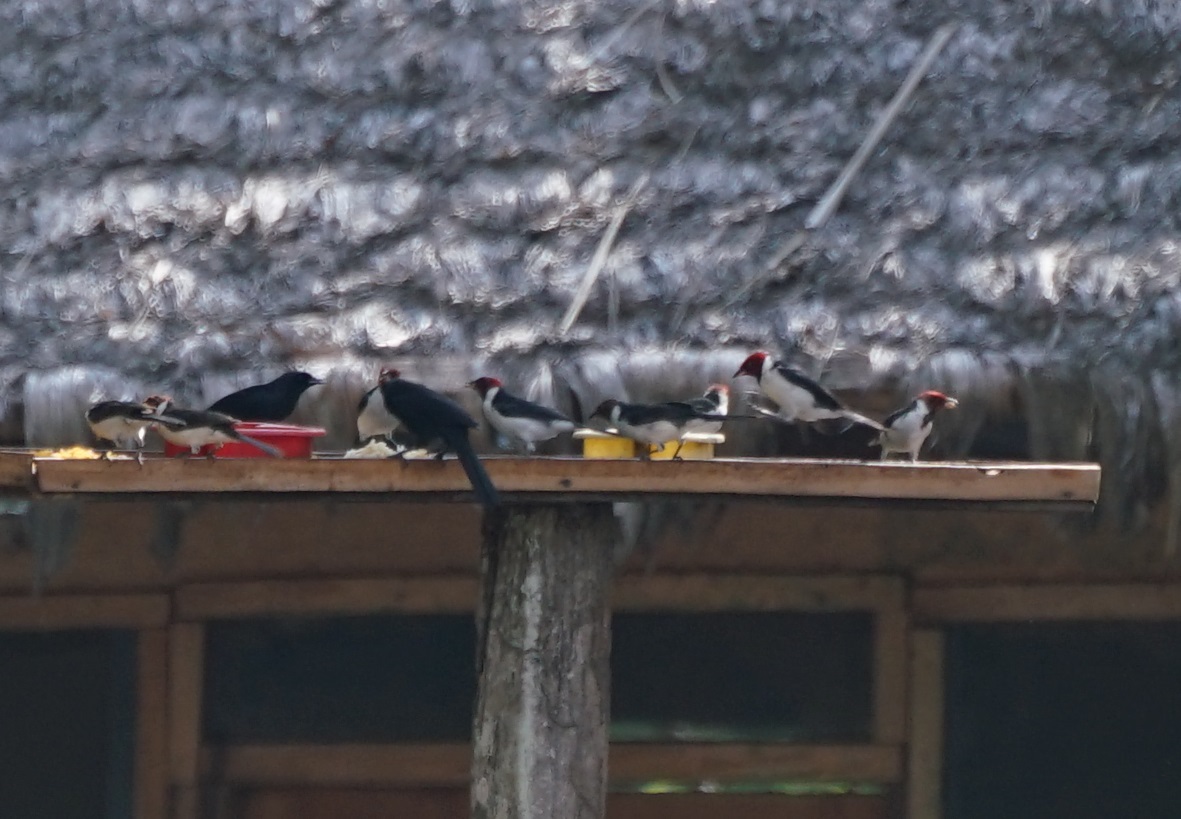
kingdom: Animalia
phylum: Chordata
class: Aves
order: Passeriformes
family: Thraupidae
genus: Paroaria
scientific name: Paroaria coronata
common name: Red-crested cardinal
